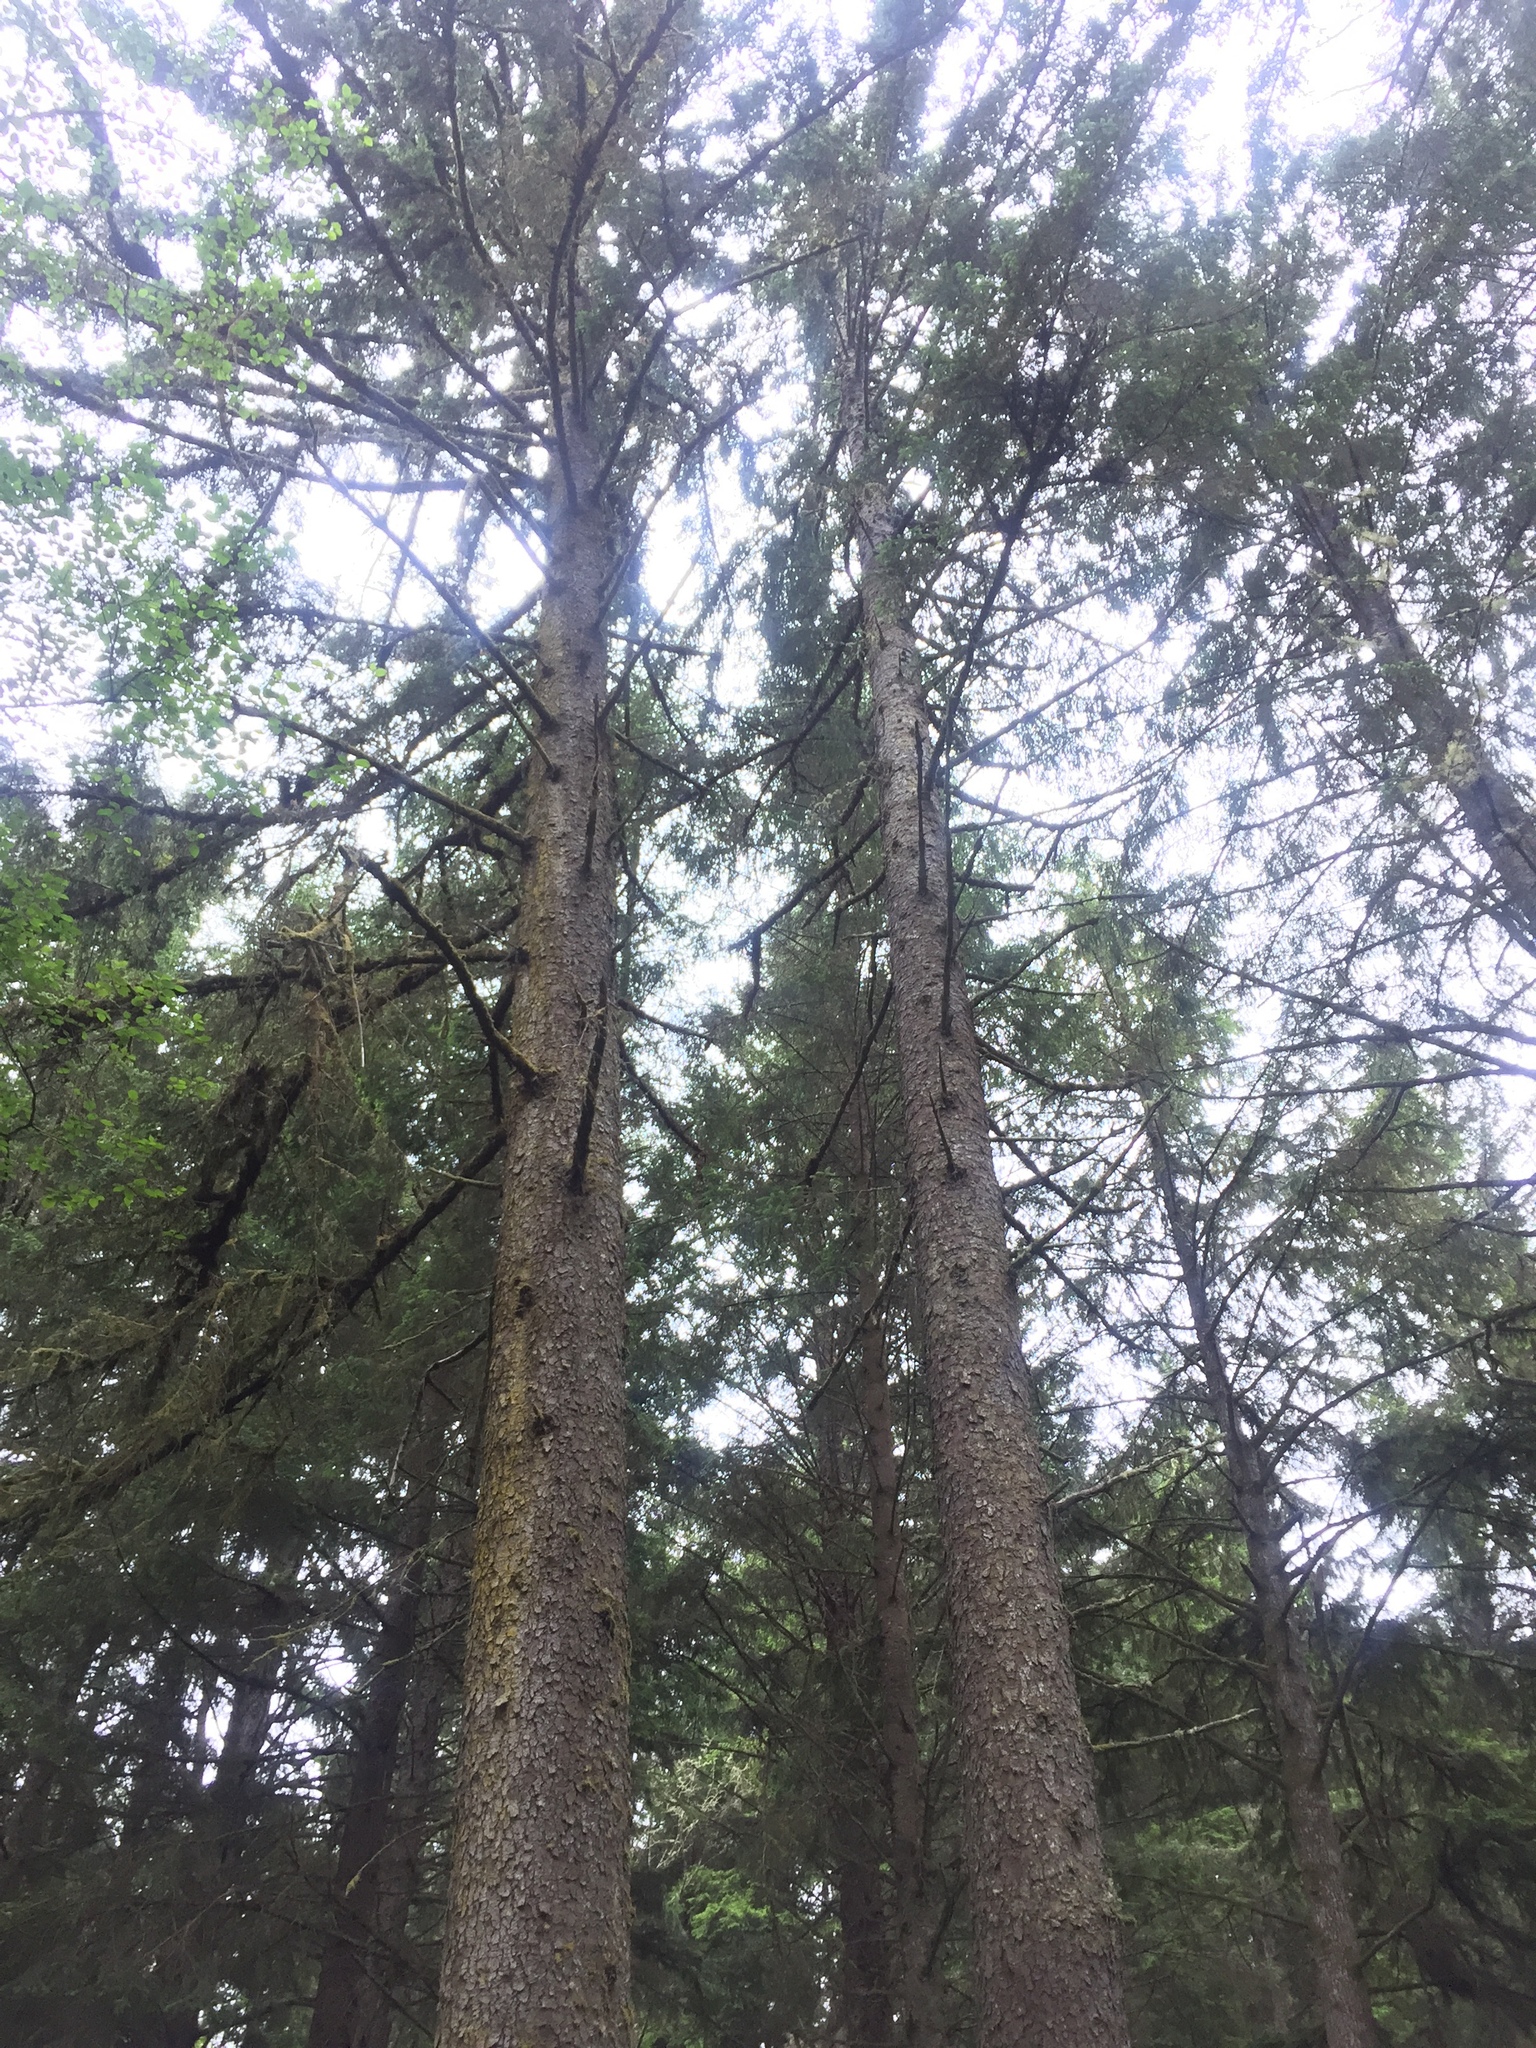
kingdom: Plantae
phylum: Tracheophyta
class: Pinopsida
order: Pinales
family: Pinaceae
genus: Picea
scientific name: Picea sitchensis
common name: Sitka spruce
